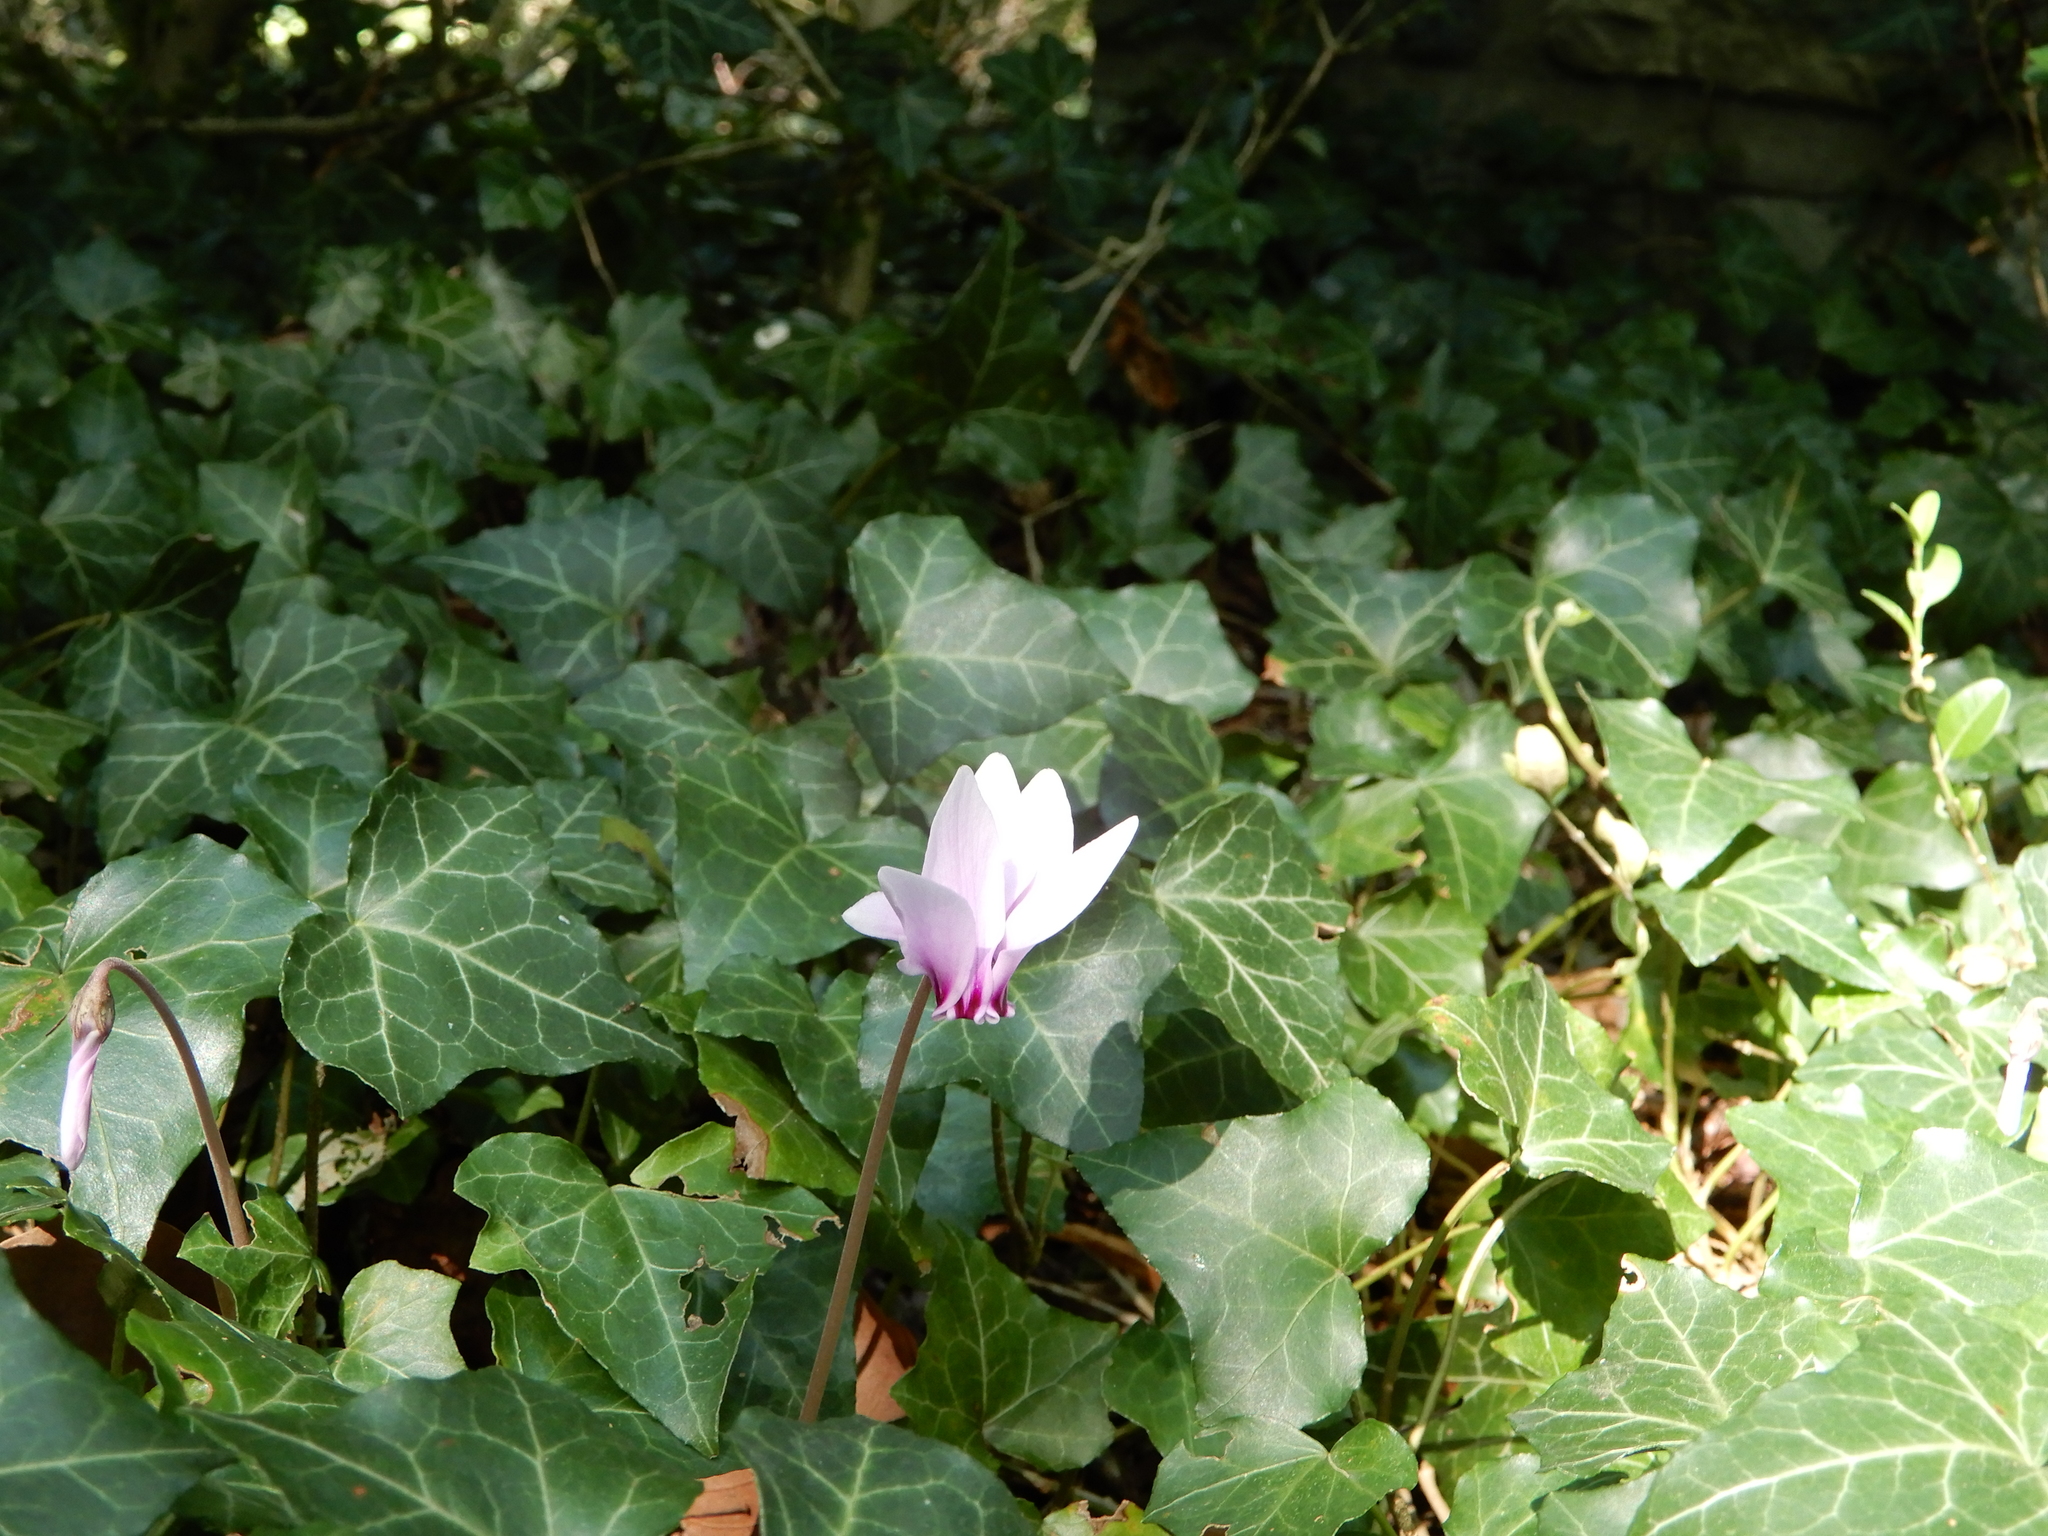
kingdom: Plantae
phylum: Tracheophyta
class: Magnoliopsida
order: Ericales
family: Primulaceae
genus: Cyclamen
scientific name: Cyclamen hederifolium
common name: Sowbread
